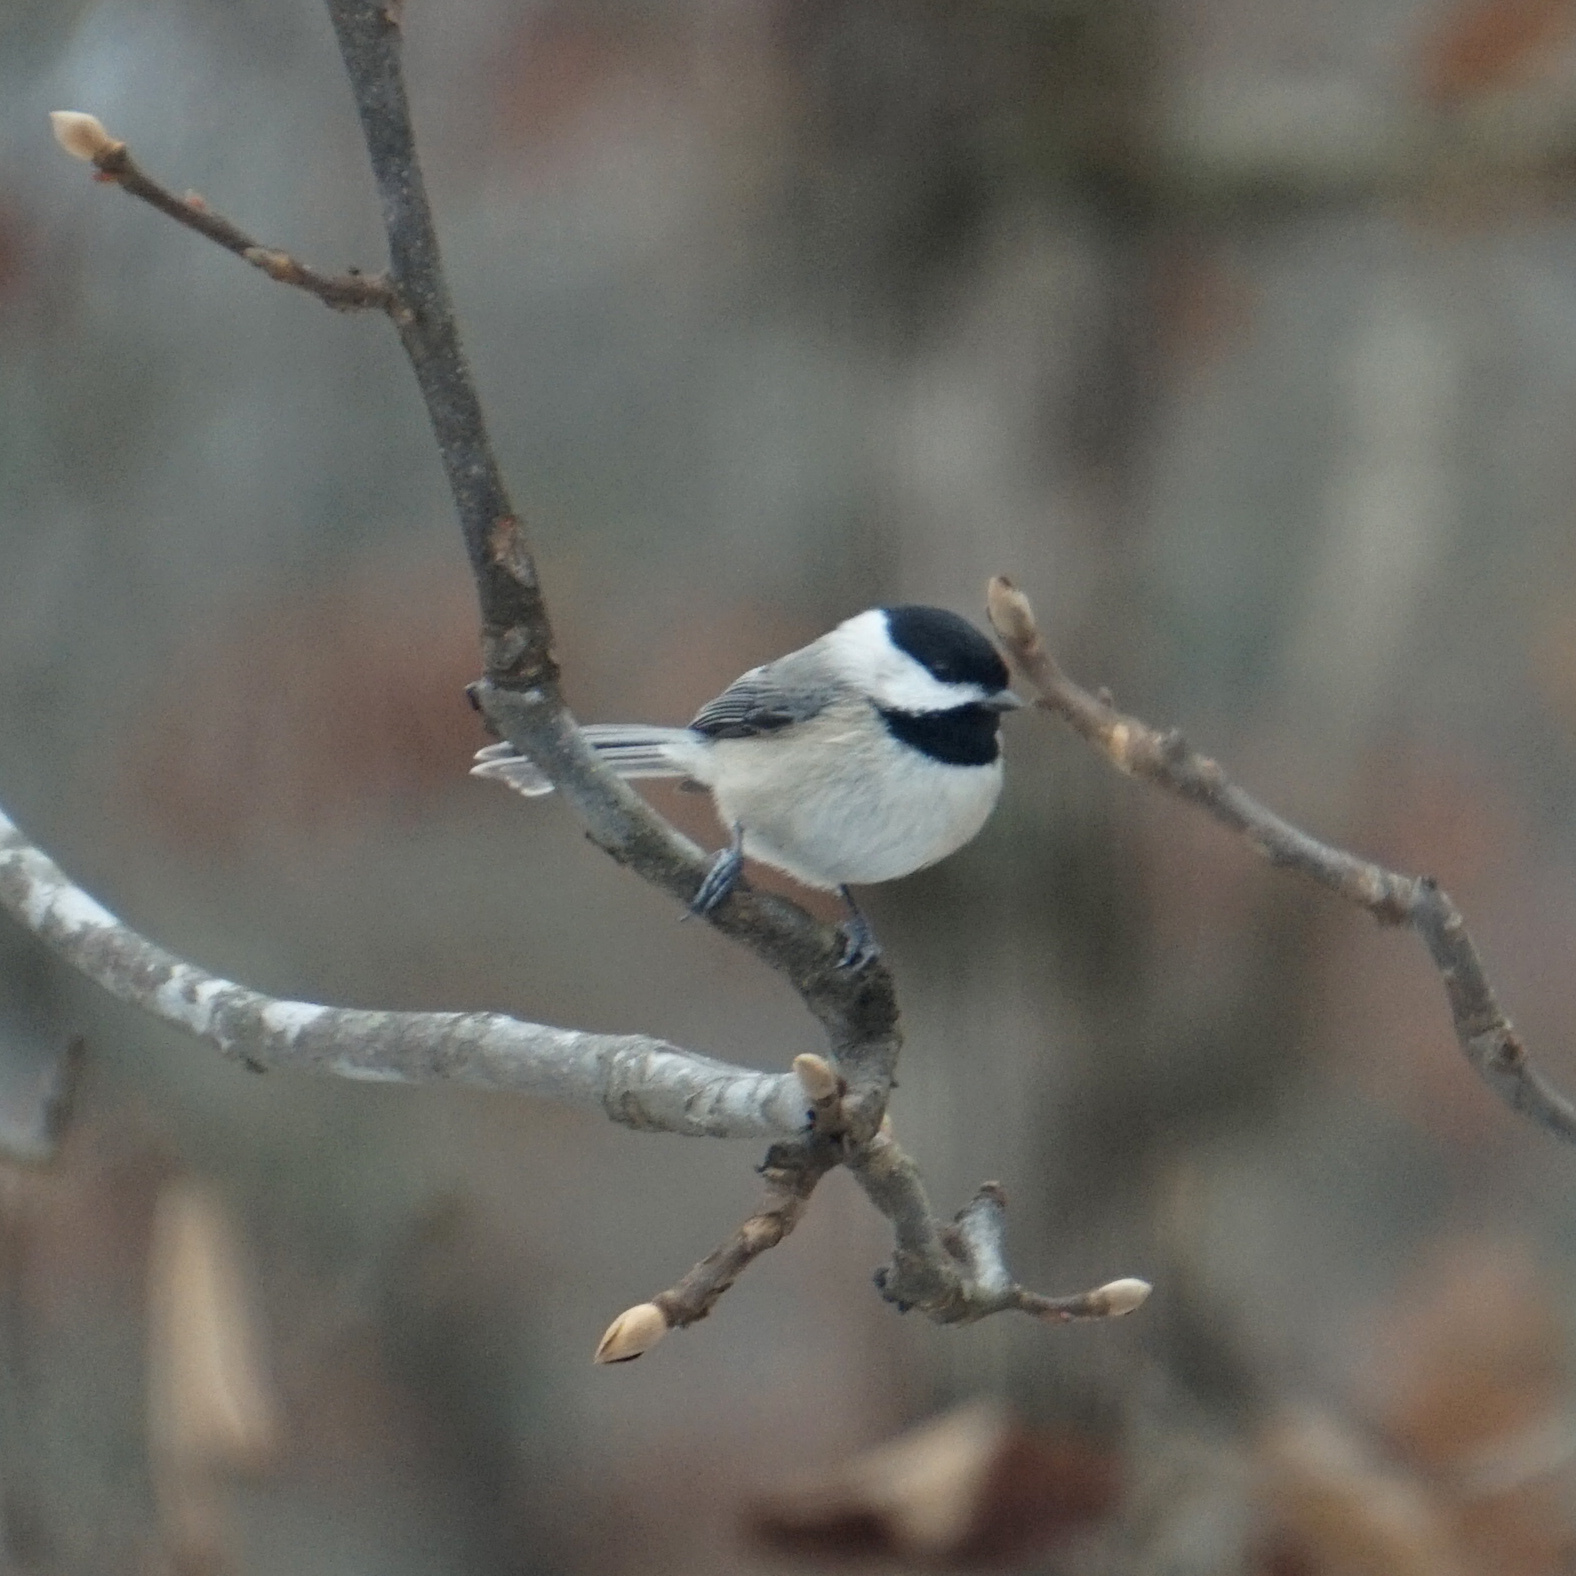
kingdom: Animalia
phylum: Chordata
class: Aves
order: Passeriformes
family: Paridae
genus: Poecile
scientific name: Poecile carolinensis
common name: Carolina chickadee
